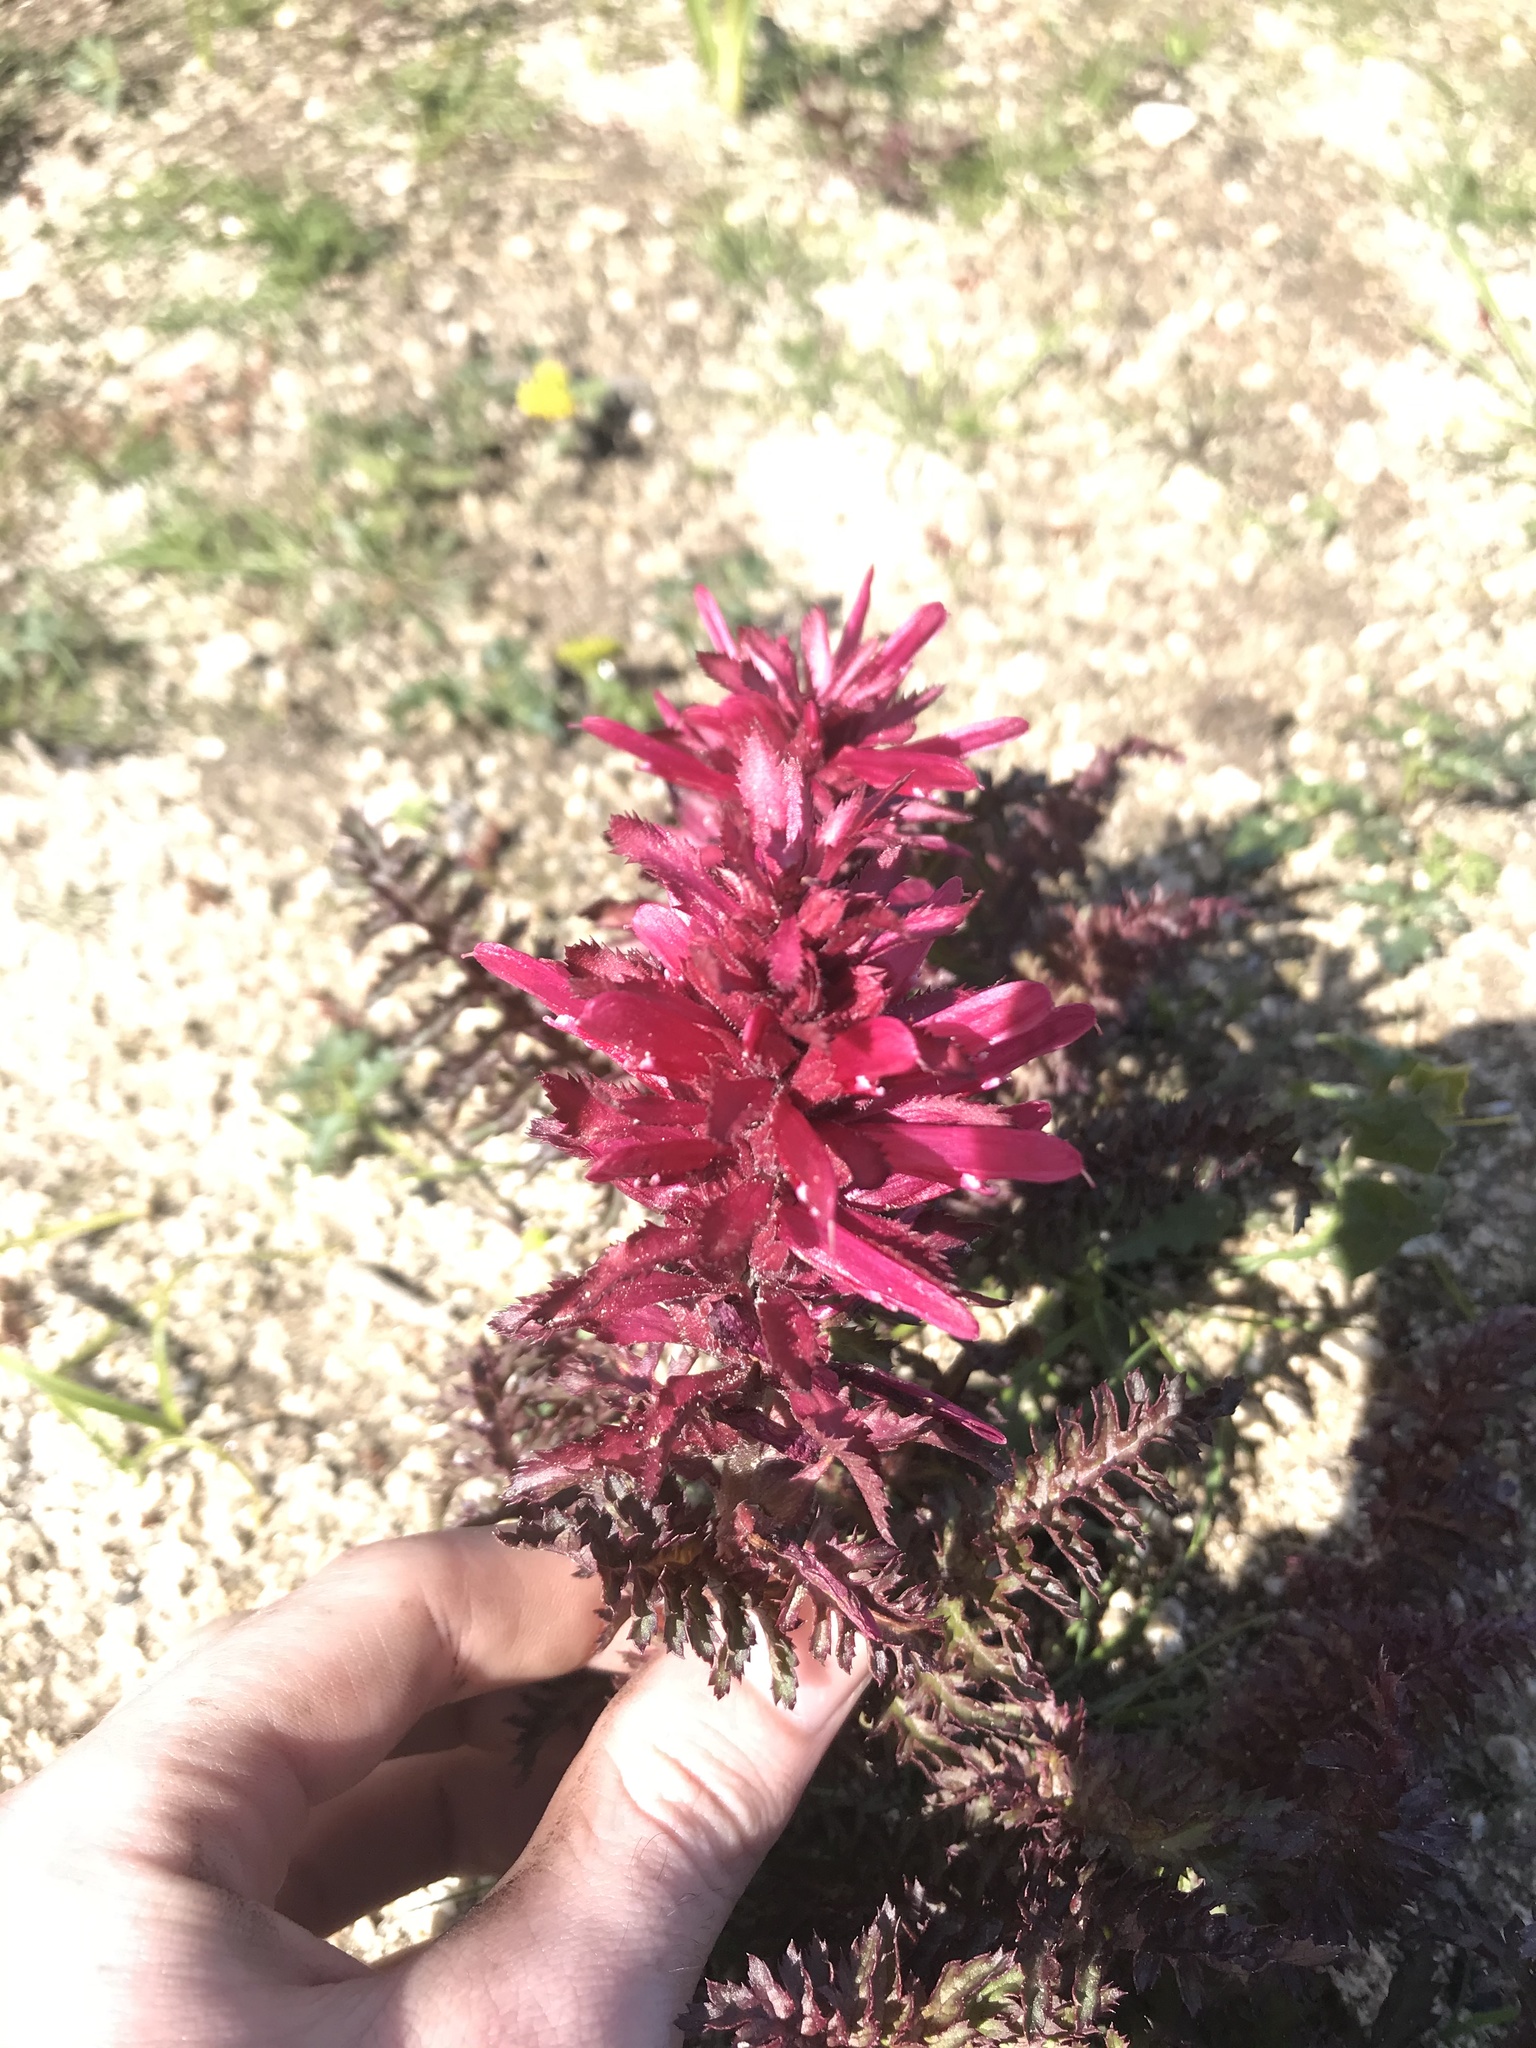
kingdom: Plantae
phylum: Tracheophyta
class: Magnoliopsida
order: Lamiales
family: Orobanchaceae
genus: Pedicularis
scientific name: Pedicularis densiflora
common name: Indian warrior
